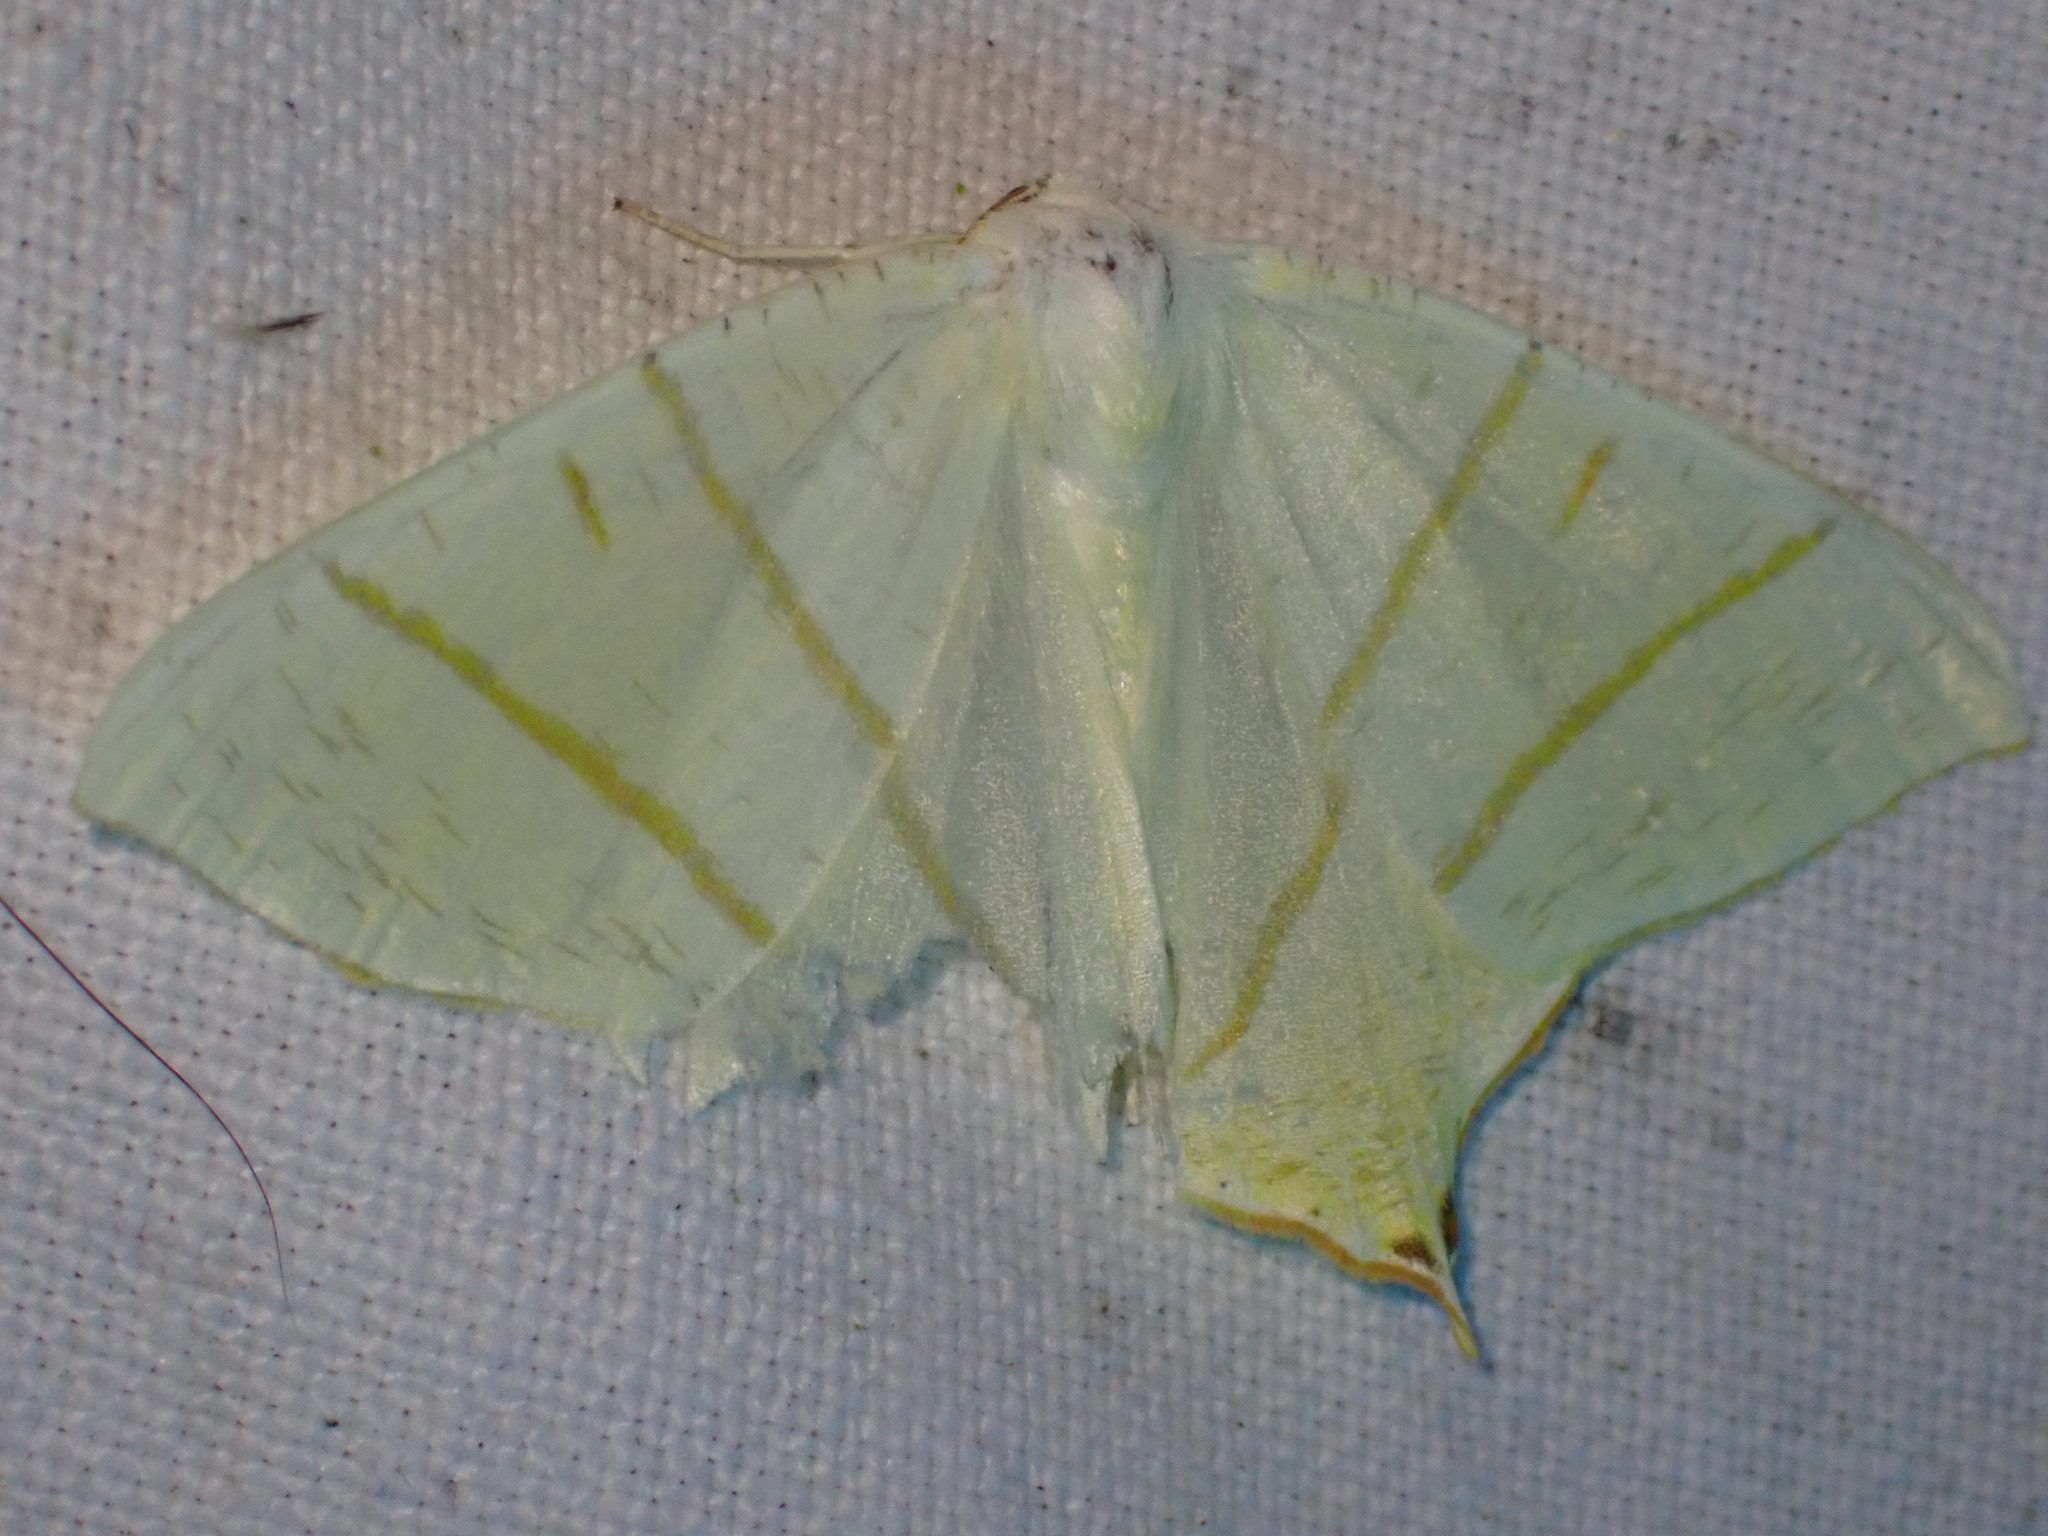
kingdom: Animalia
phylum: Arthropoda
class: Insecta
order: Lepidoptera
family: Geometridae
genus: Ourapteryx
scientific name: Ourapteryx sambucaria
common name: Swallow-tailed moth
